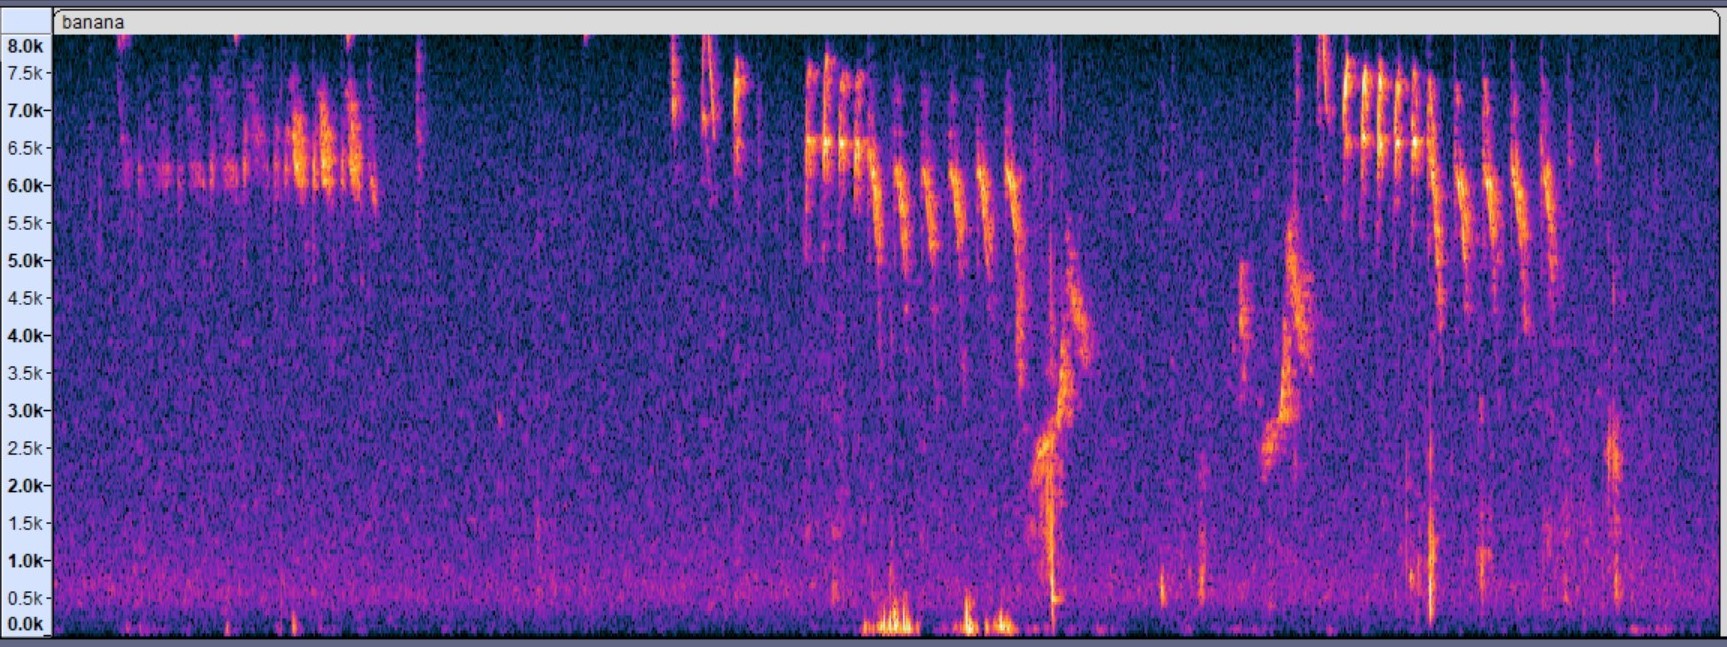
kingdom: Animalia
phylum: Chordata
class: Aves
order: Passeriformes
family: Thraupidae
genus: Coereba
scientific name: Coereba flaveola
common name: Bananaquit
